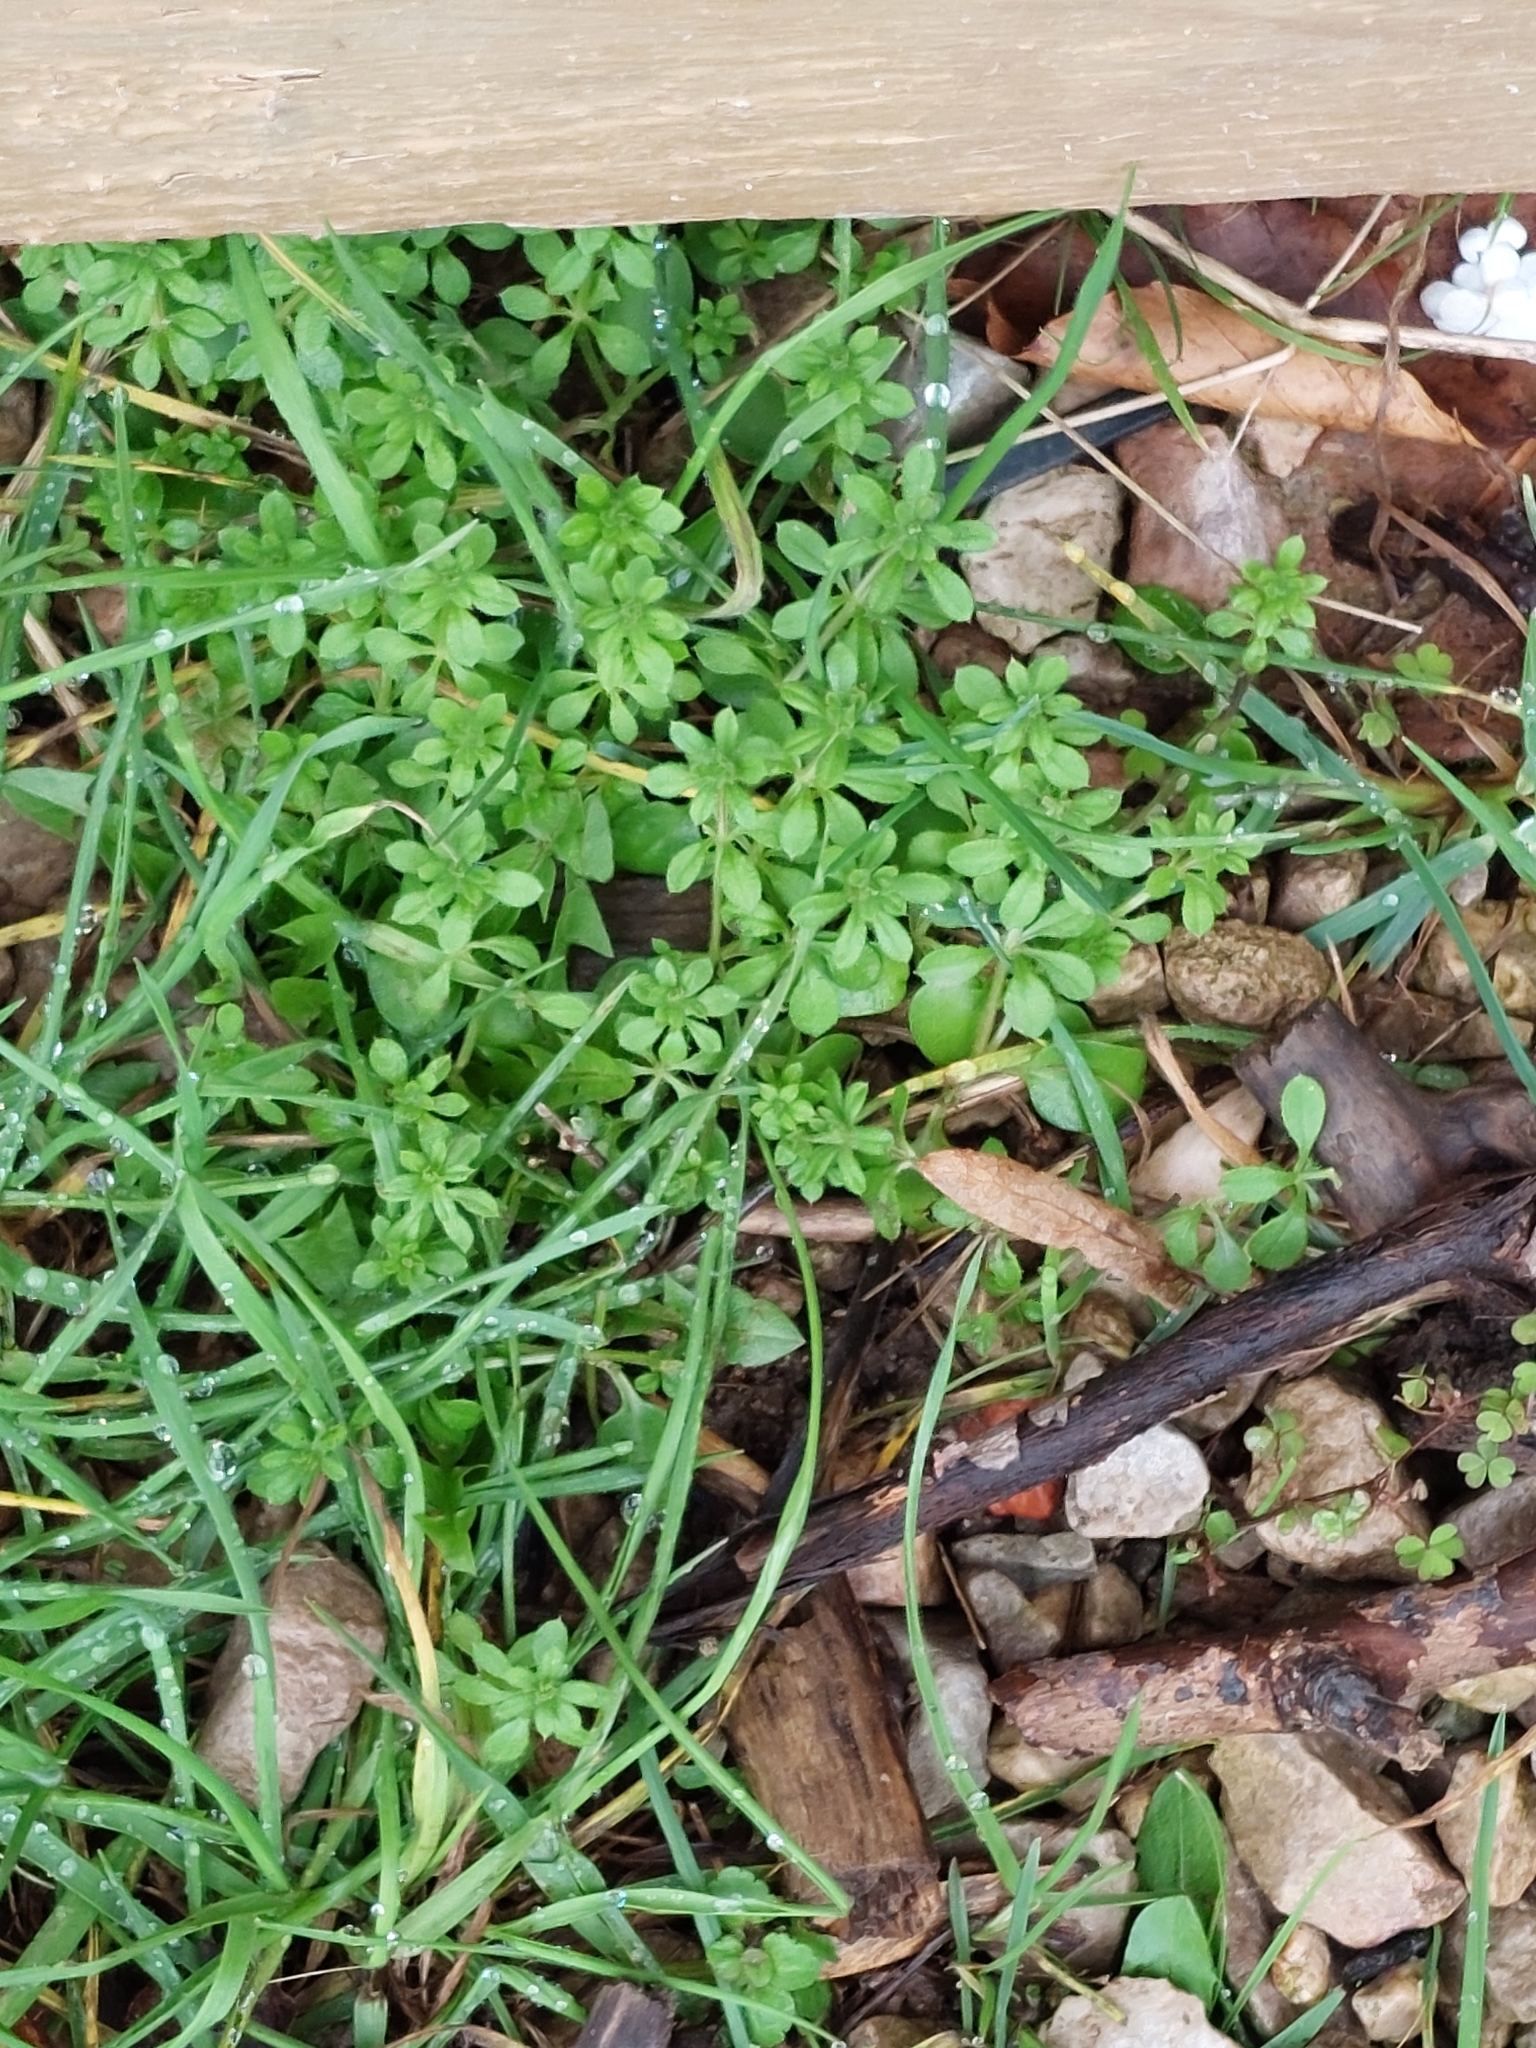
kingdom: Plantae
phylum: Tracheophyta
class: Magnoliopsida
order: Gentianales
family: Rubiaceae
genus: Galium
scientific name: Galium aparine
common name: Cleavers
